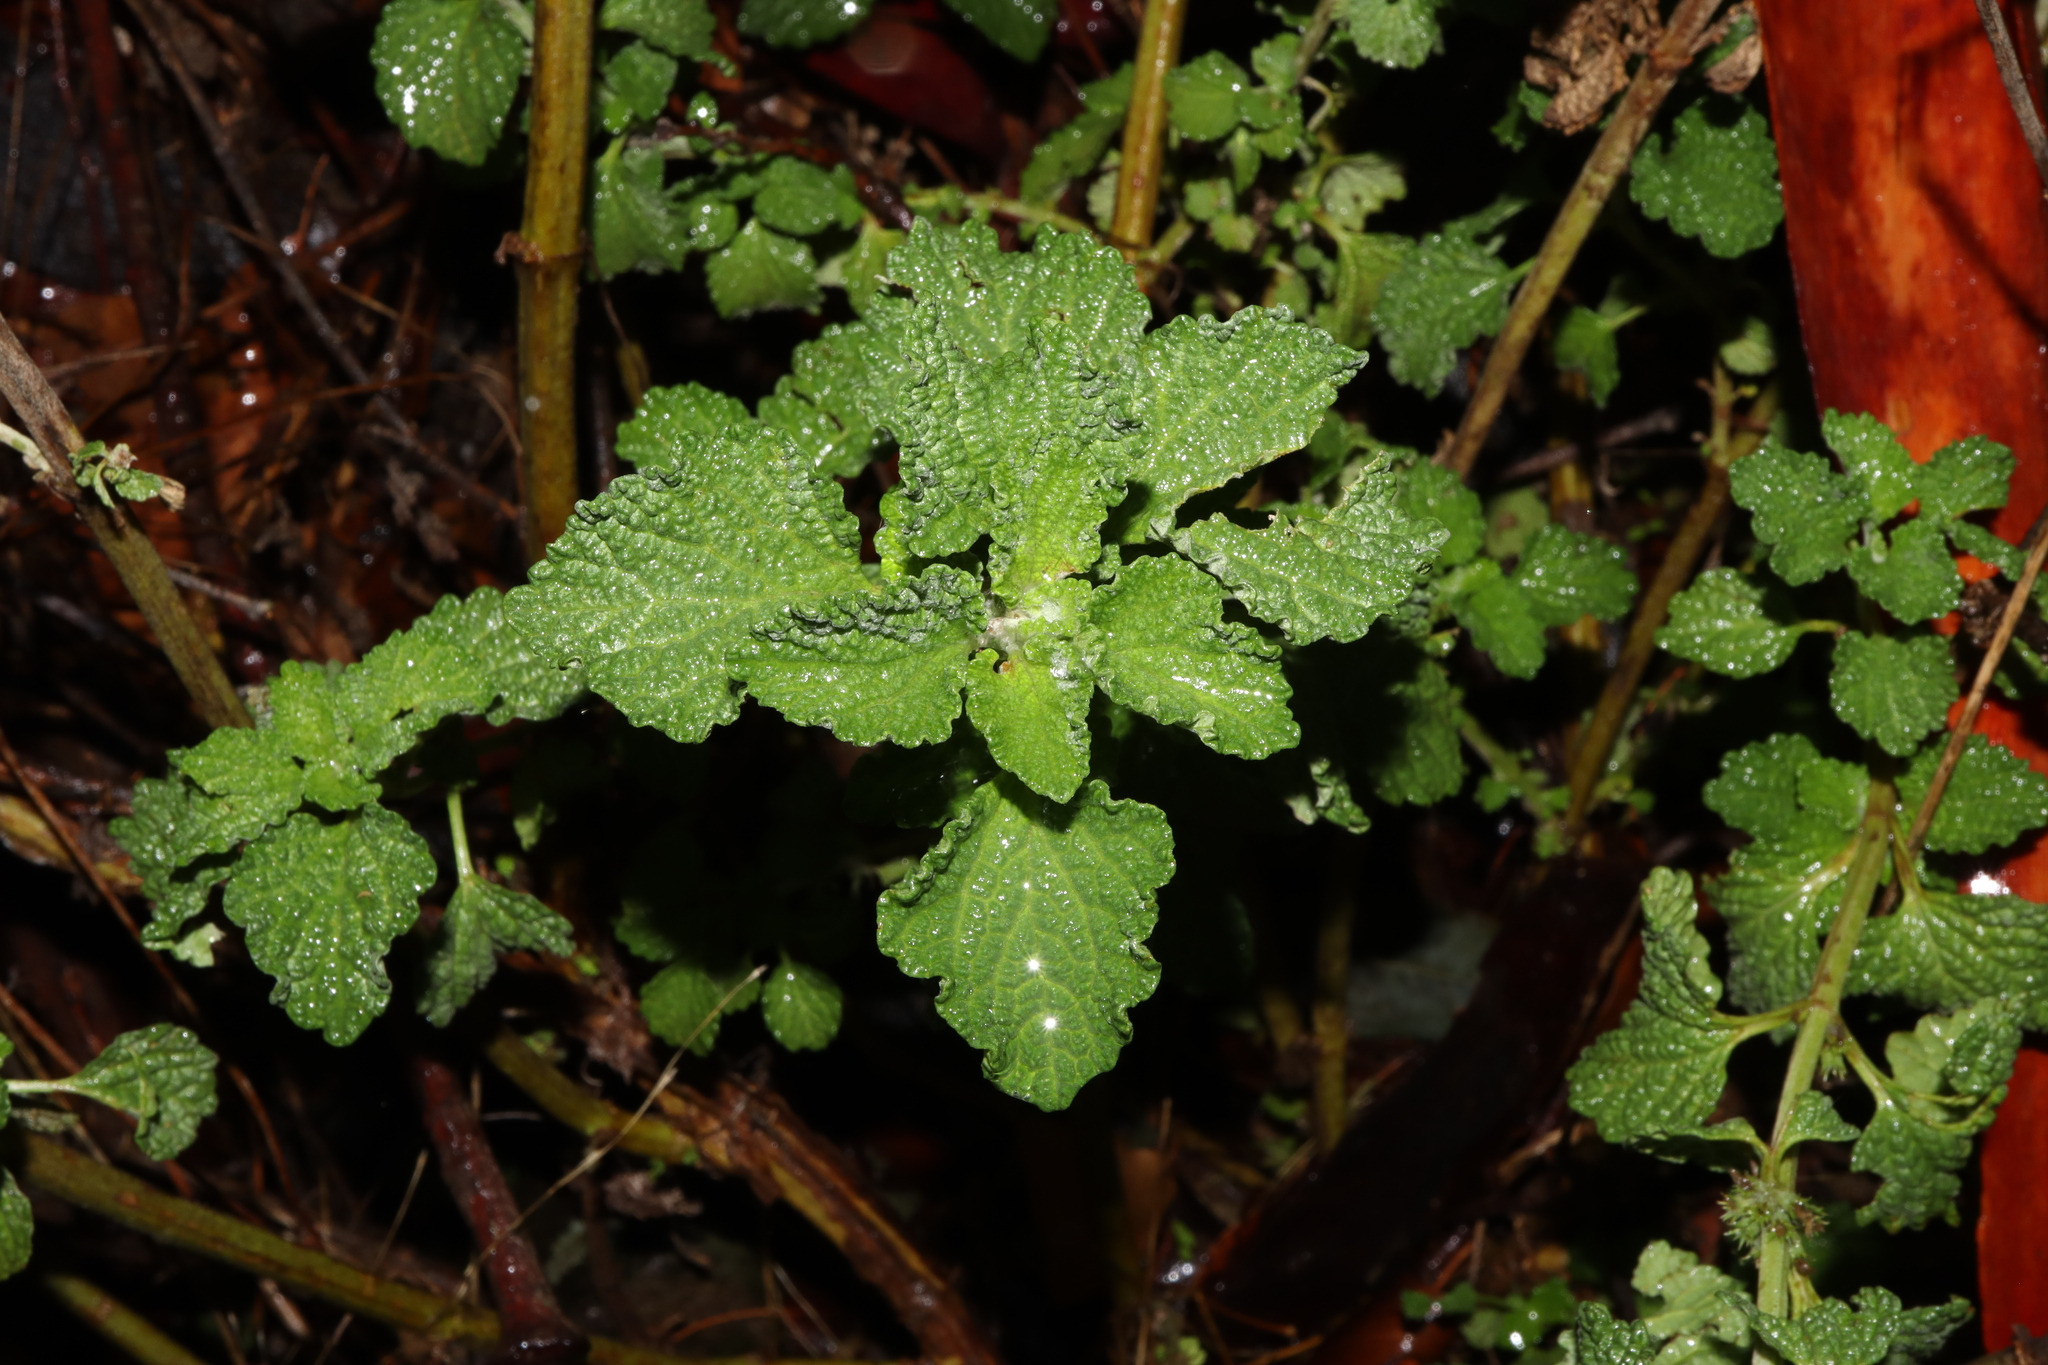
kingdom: Plantae
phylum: Tracheophyta
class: Magnoliopsida
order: Lamiales
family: Lamiaceae
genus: Marrubium
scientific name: Marrubium vulgare
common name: Horehound
